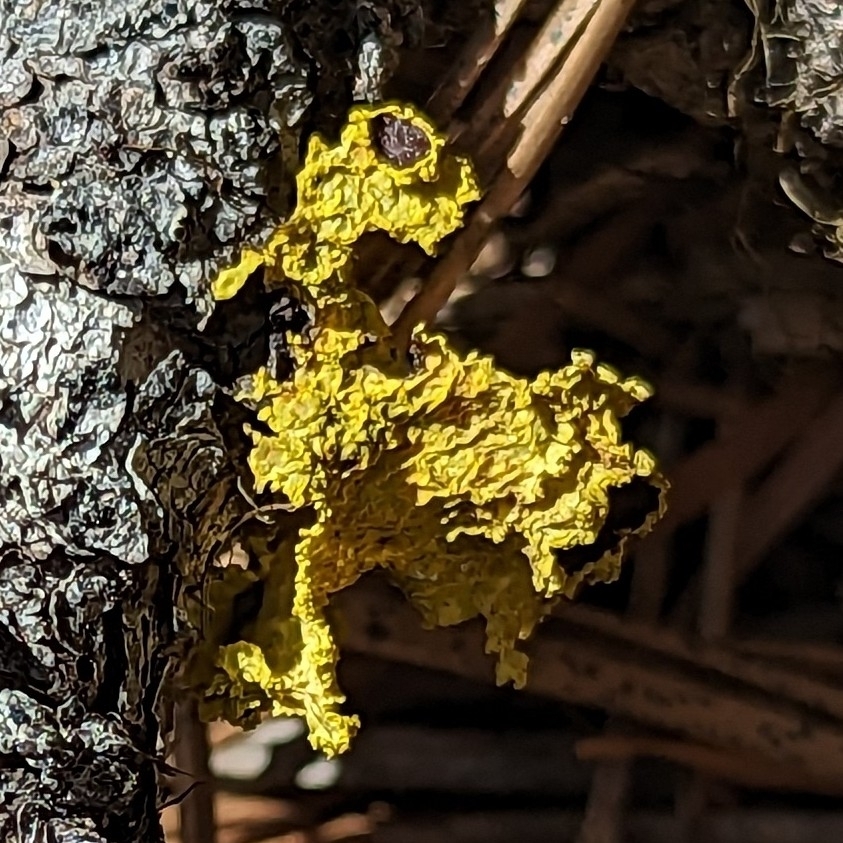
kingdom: Fungi
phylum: Ascomycota
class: Lecanoromycetes
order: Lecanorales
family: Parmeliaceae
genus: Vulpicida
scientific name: Vulpicida canadensis
